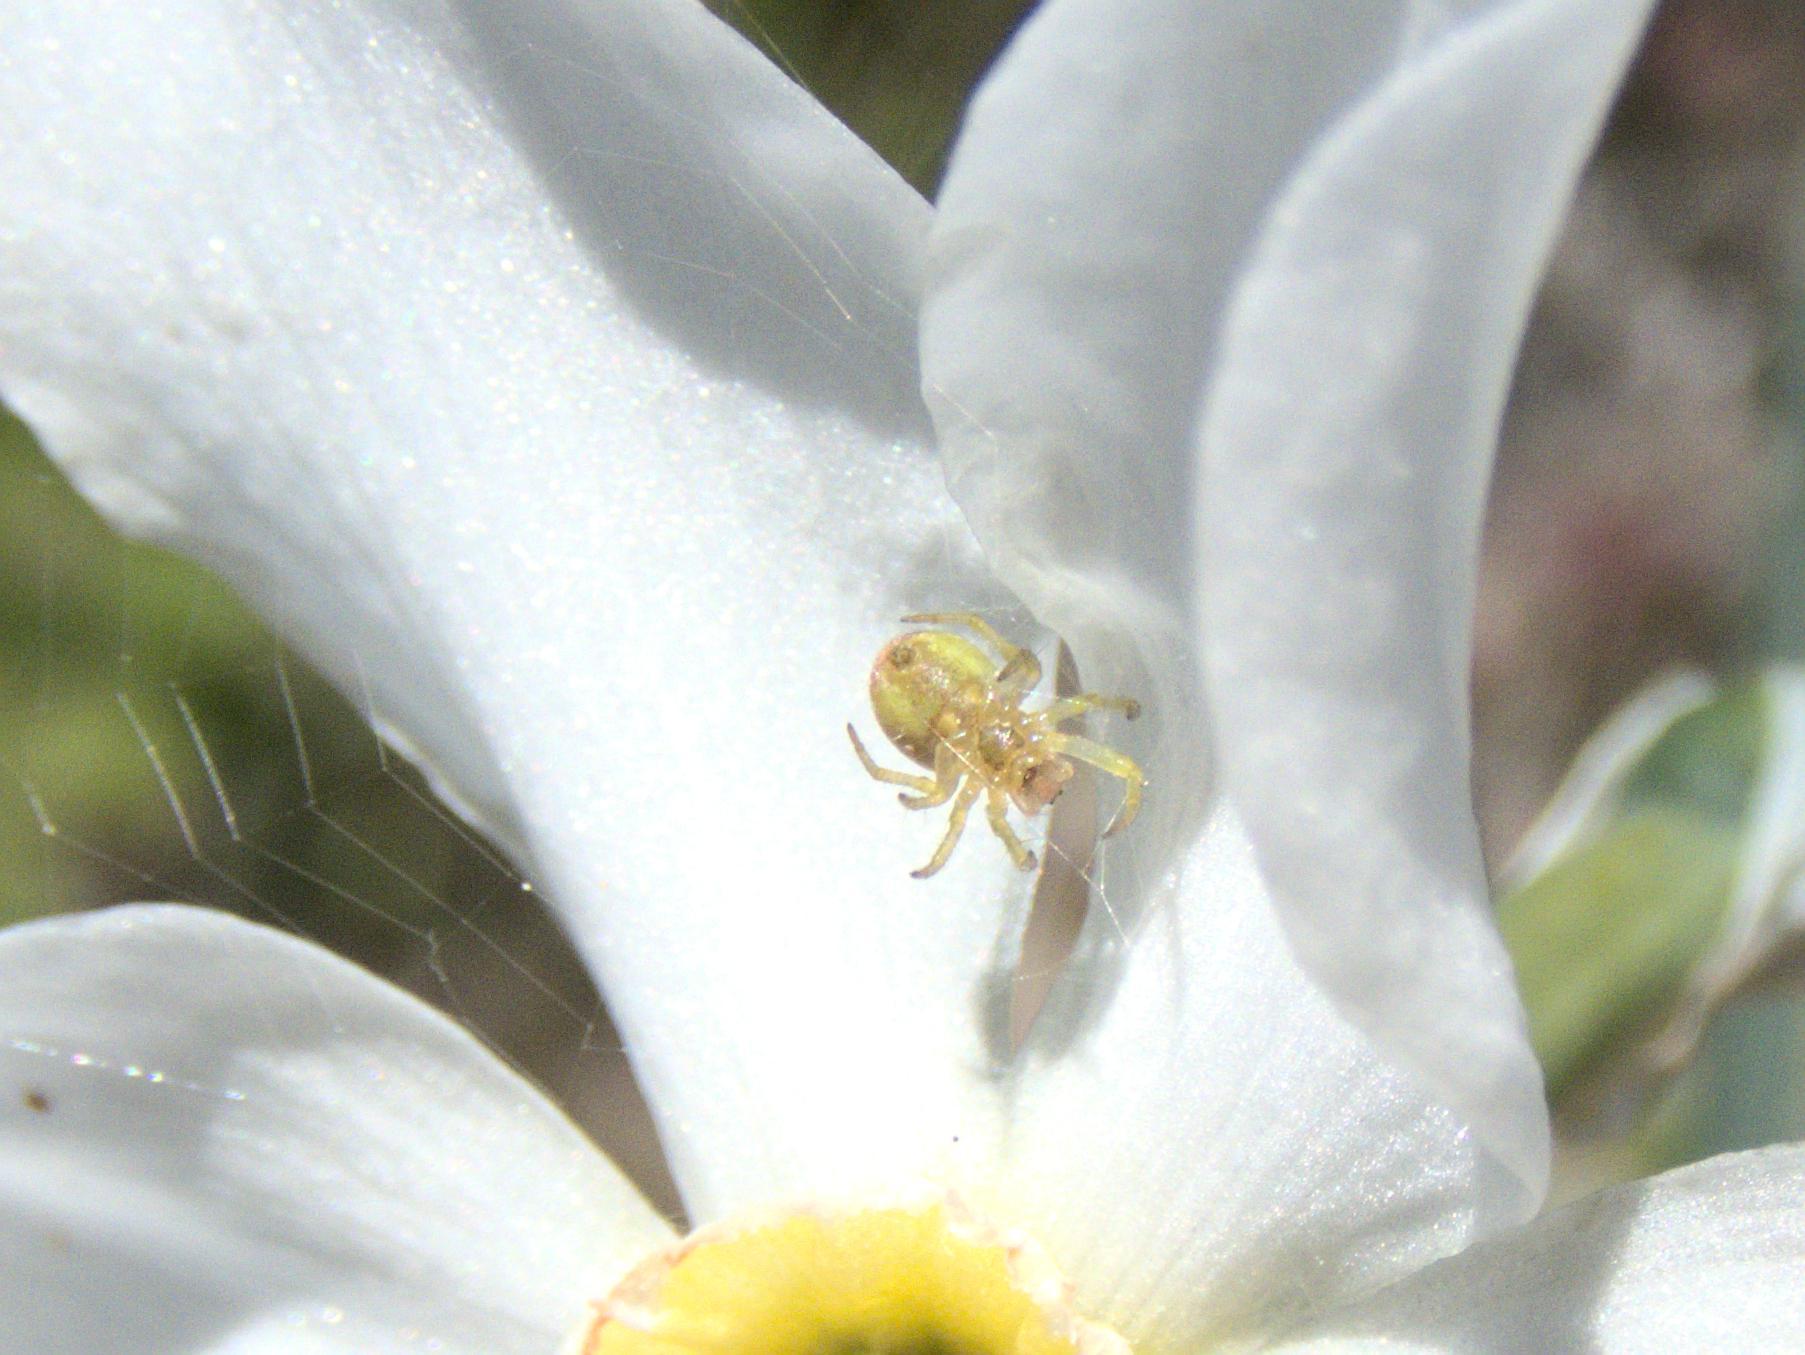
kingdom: Animalia
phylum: Arthropoda
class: Arachnida
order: Araneae
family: Araneidae
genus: Araniella
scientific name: Araniella
